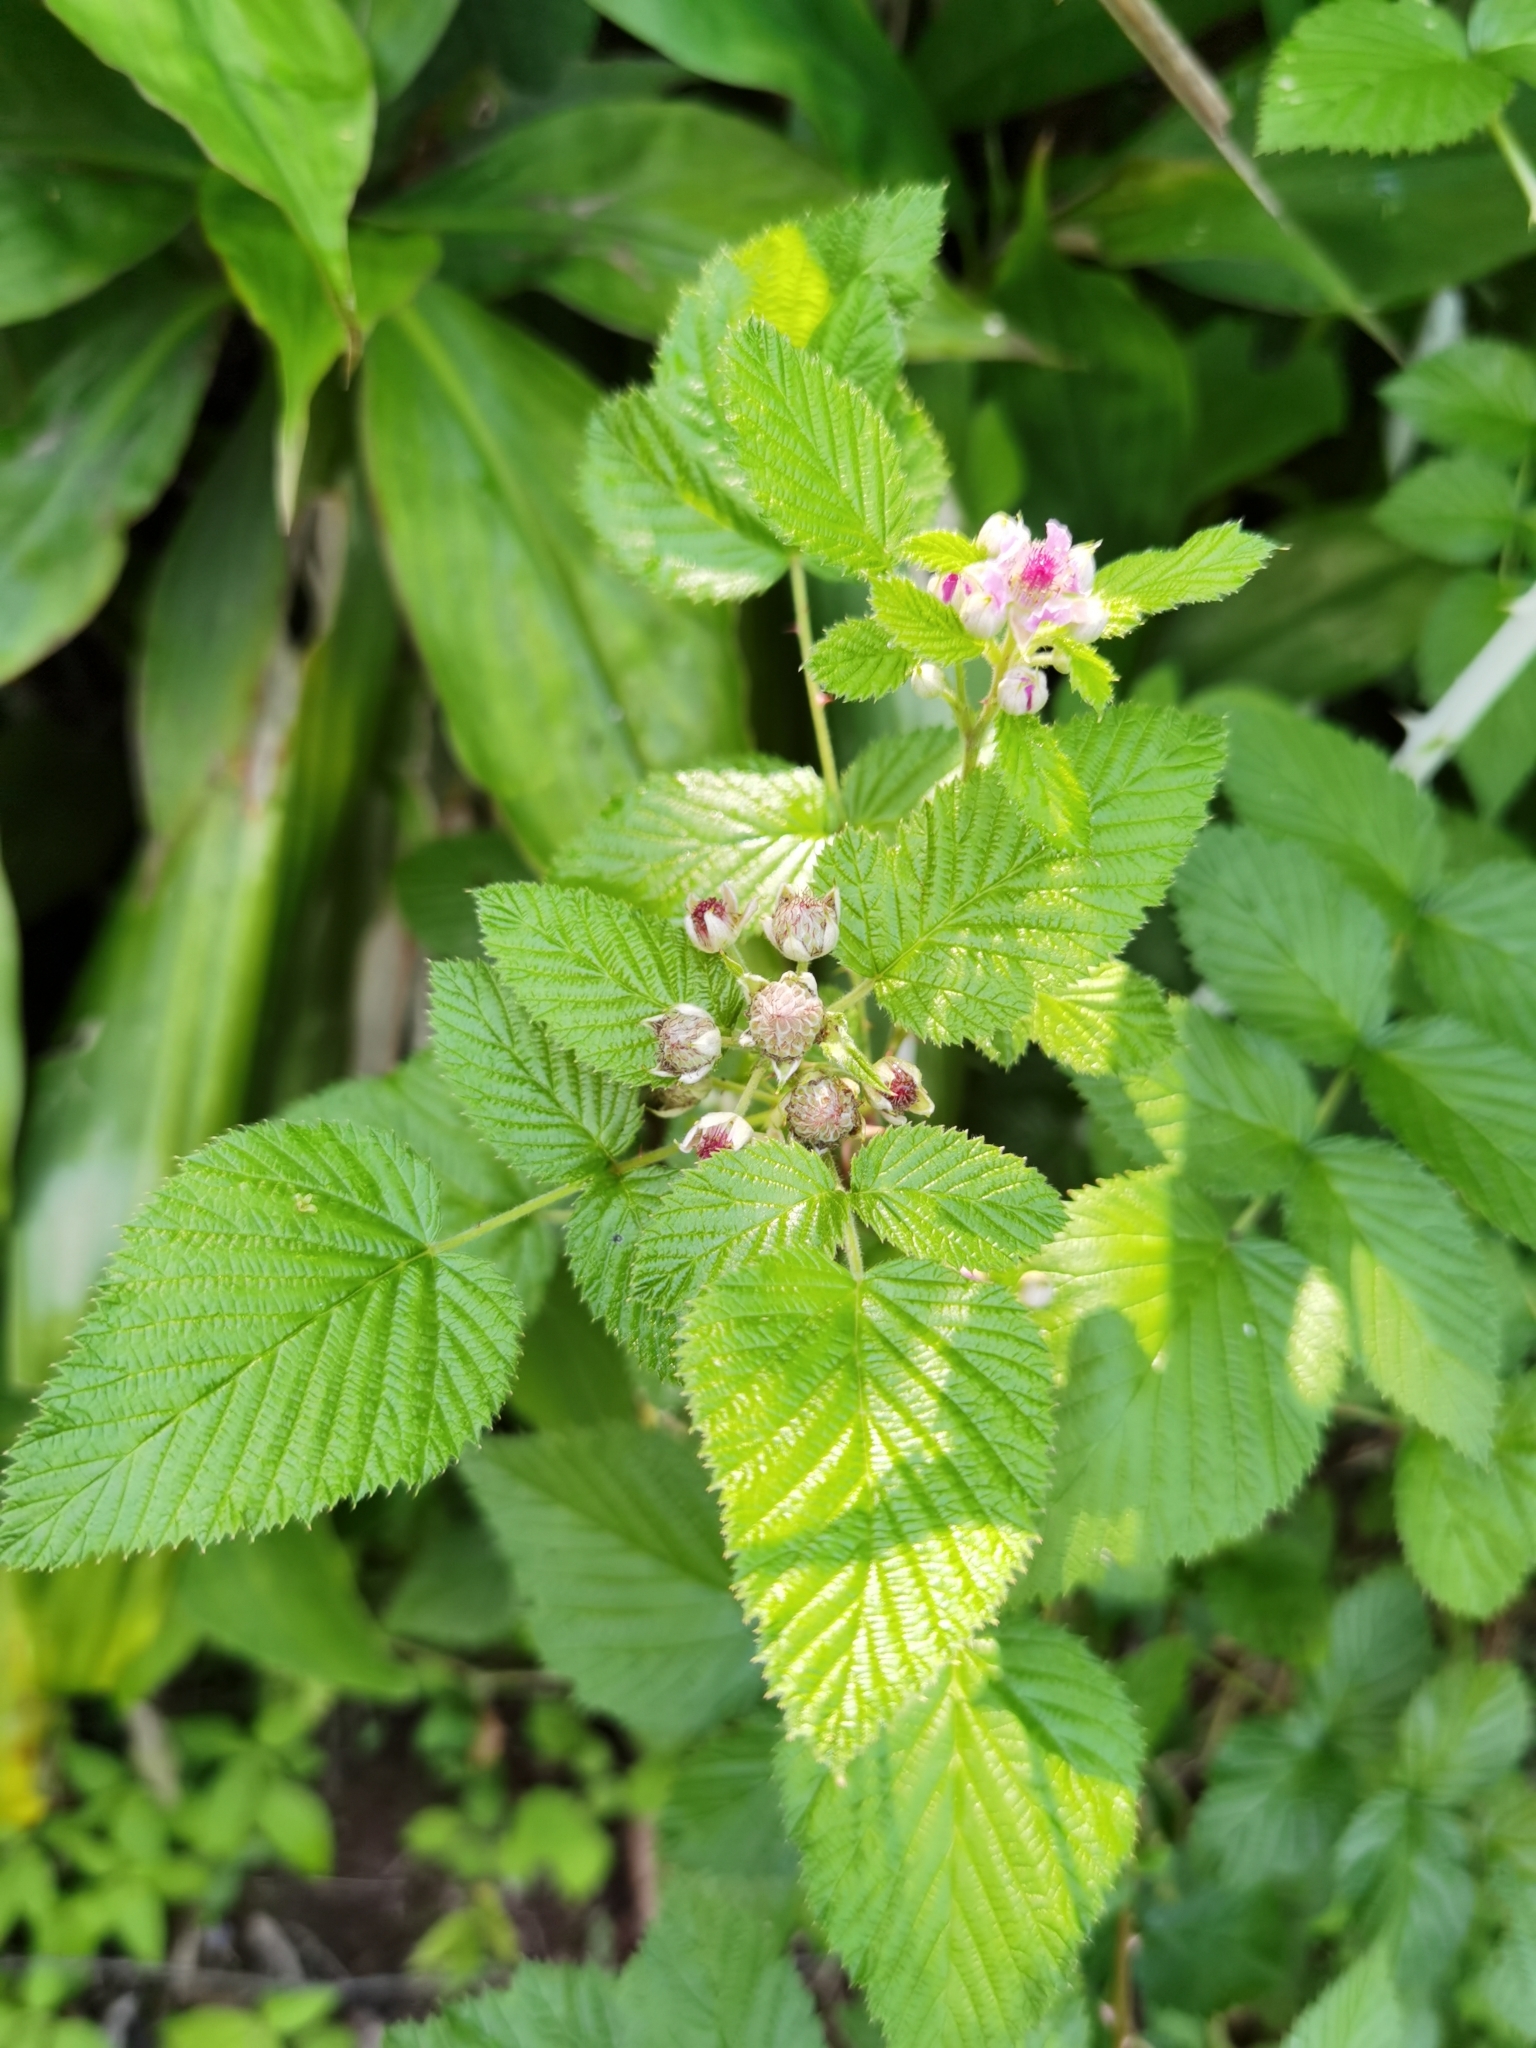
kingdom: Plantae
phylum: Tracheophyta
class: Magnoliopsida
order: Rosales
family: Rosaceae
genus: Rubus
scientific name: Rubus niveus
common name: Snowpeaks raspberry
